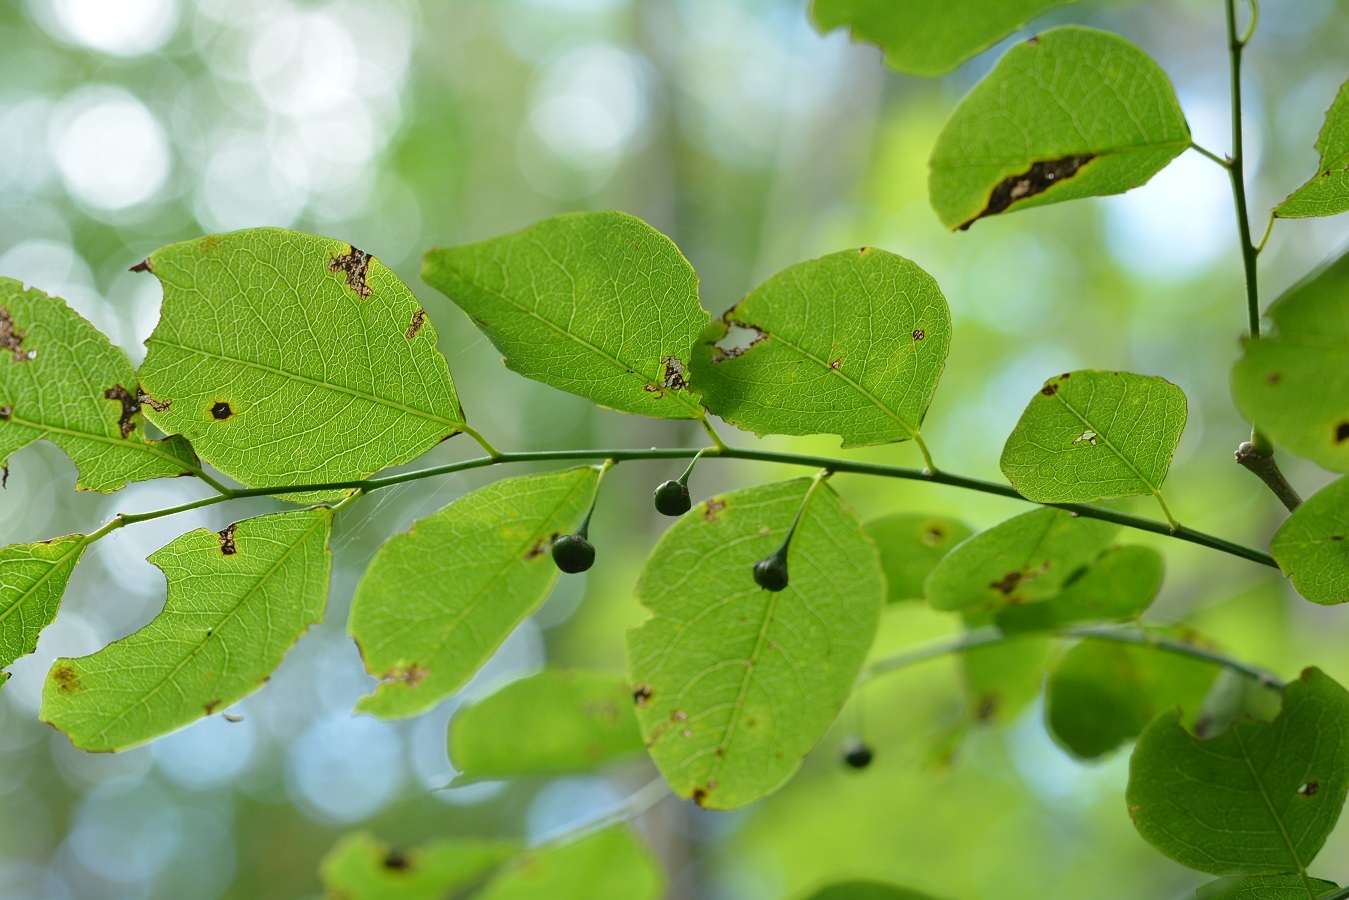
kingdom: Plantae
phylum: Tracheophyta
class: Magnoliopsida
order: Malpighiales
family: Phyllanthaceae
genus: Phyllanthus
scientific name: Phyllanthus mocinoanus
